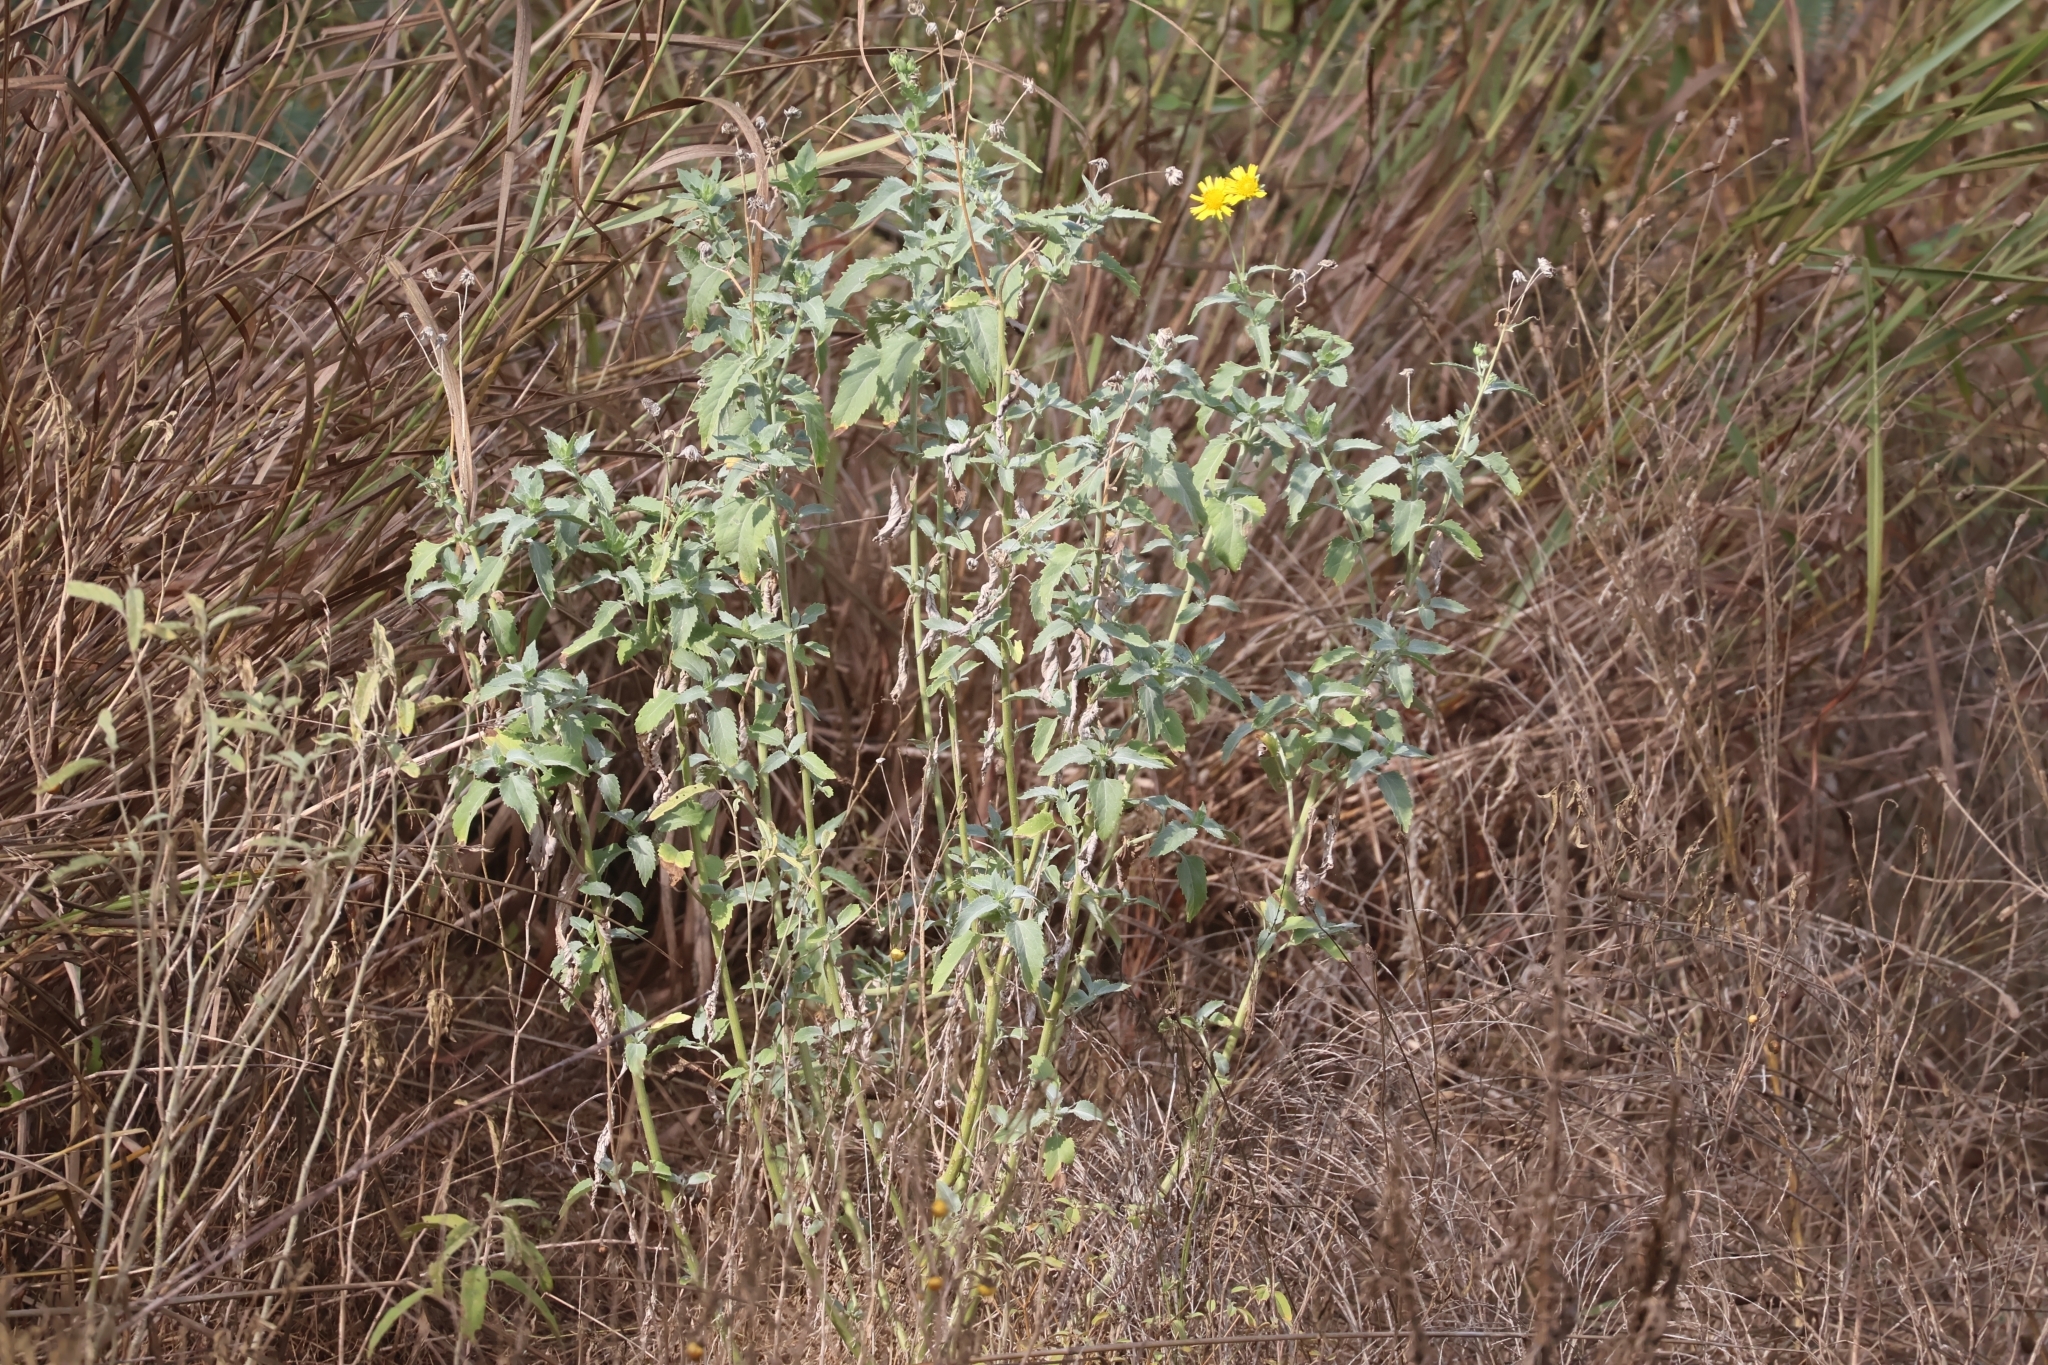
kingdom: Plantae
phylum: Tracheophyta
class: Magnoliopsida
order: Asterales
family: Asteraceae
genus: Verbesina
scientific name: Verbesina encelioides
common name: Golden crownbeard
